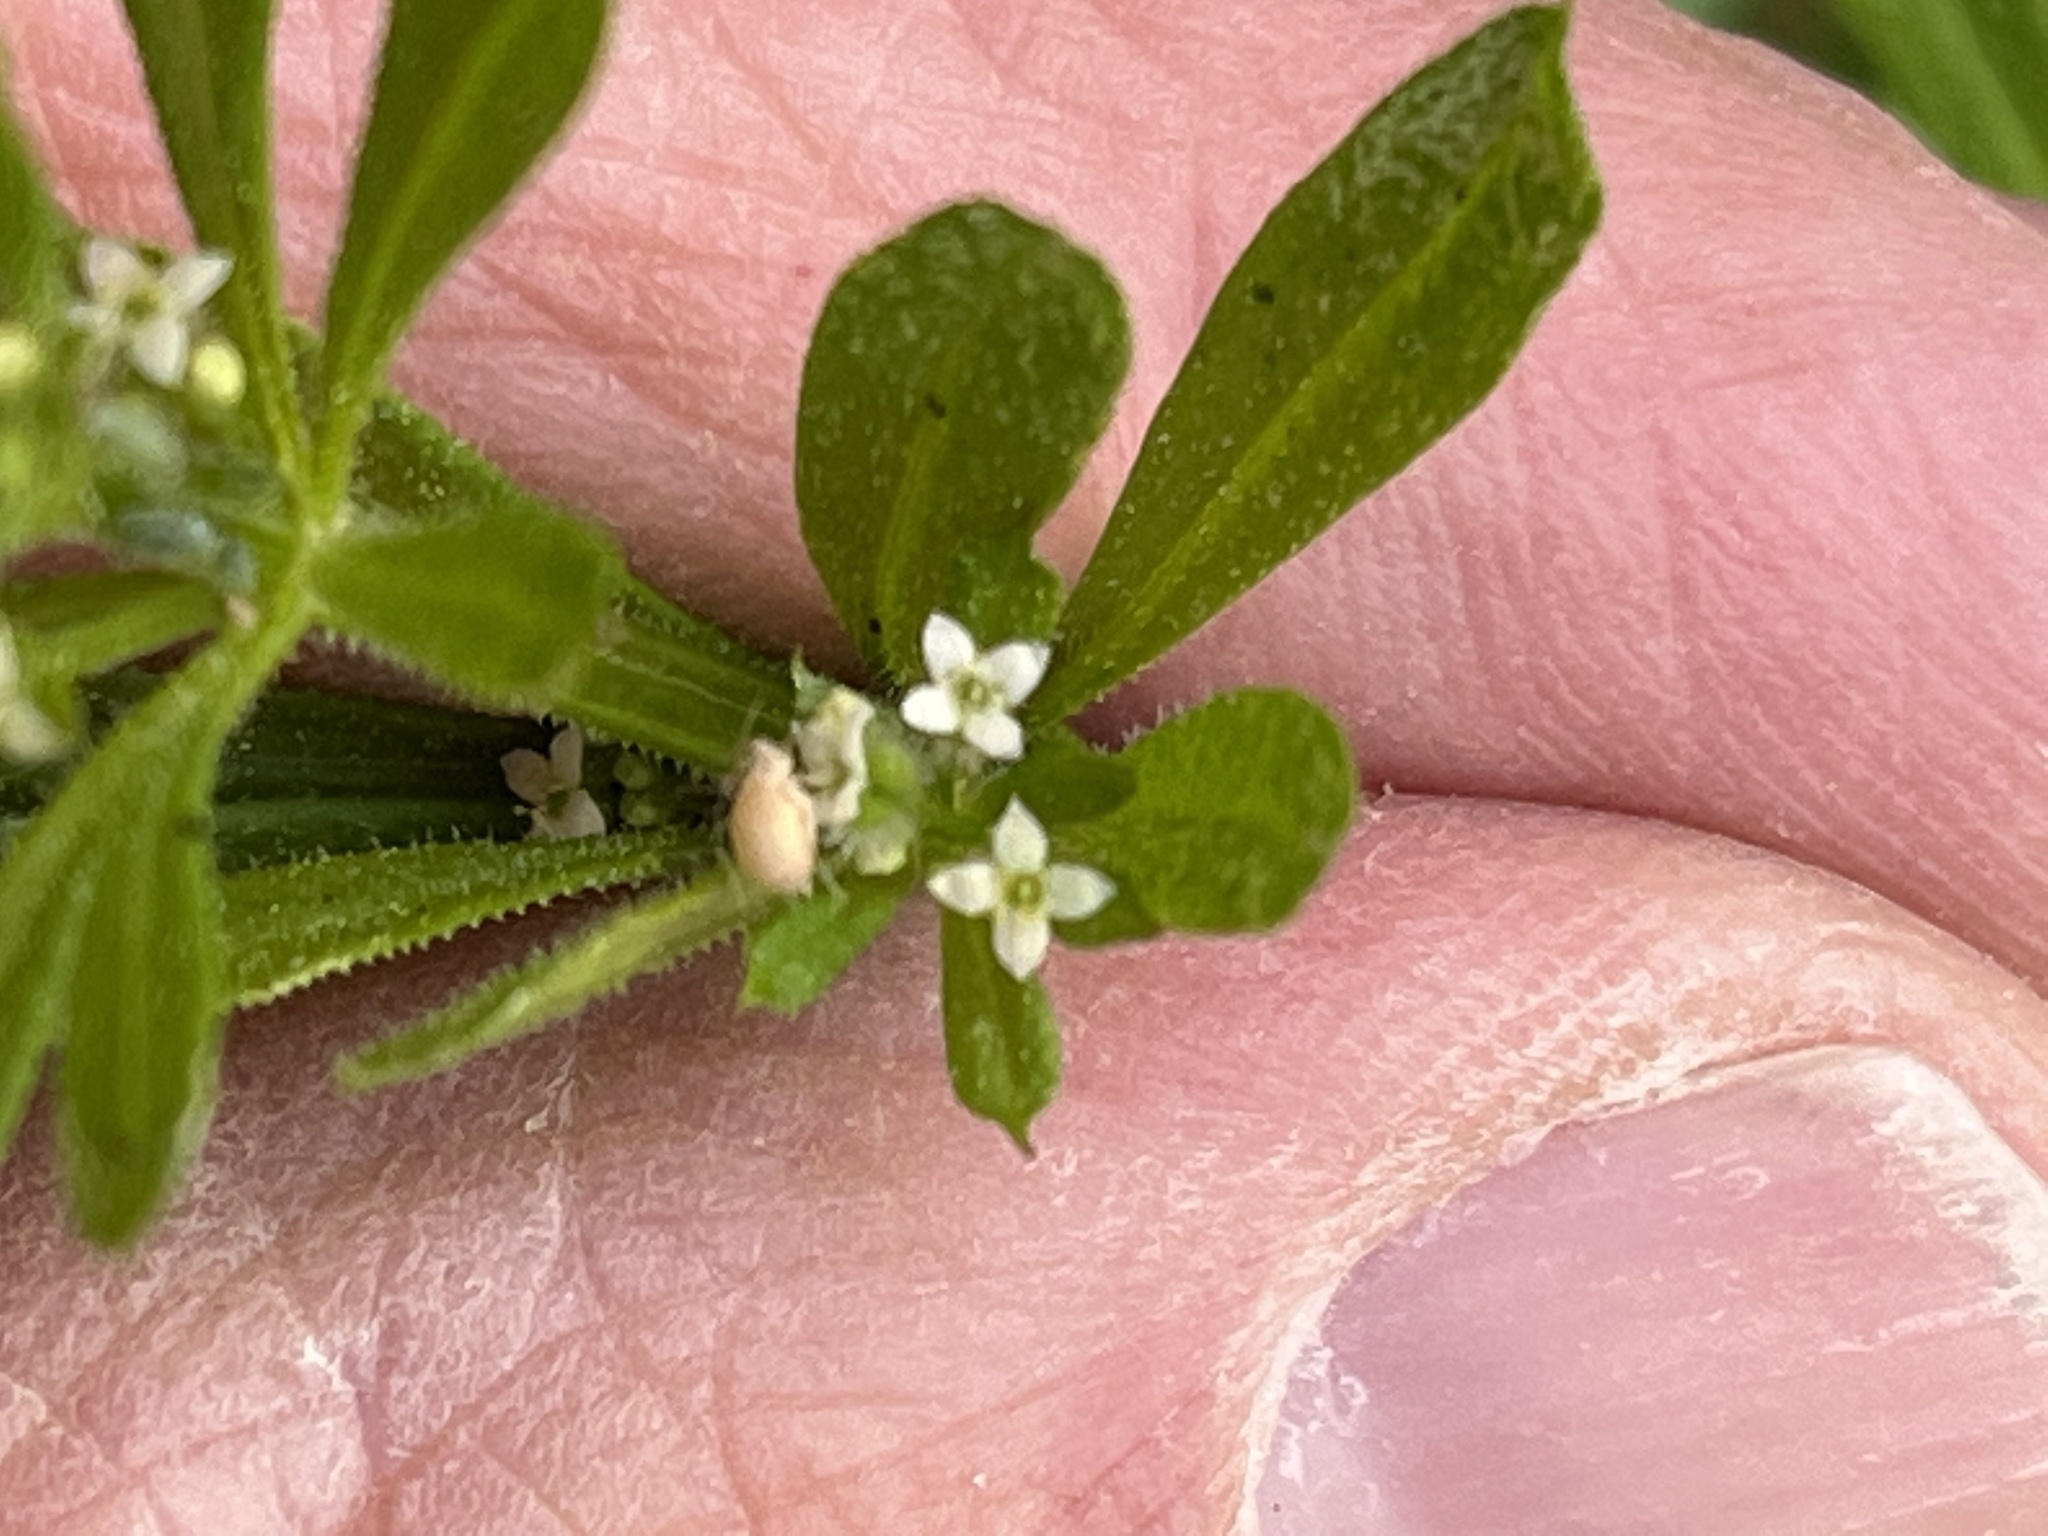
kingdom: Plantae
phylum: Tracheophyta
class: Magnoliopsida
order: Gentianales
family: Rubiaceae
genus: Galium
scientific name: Galium aparine
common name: Cleavers
